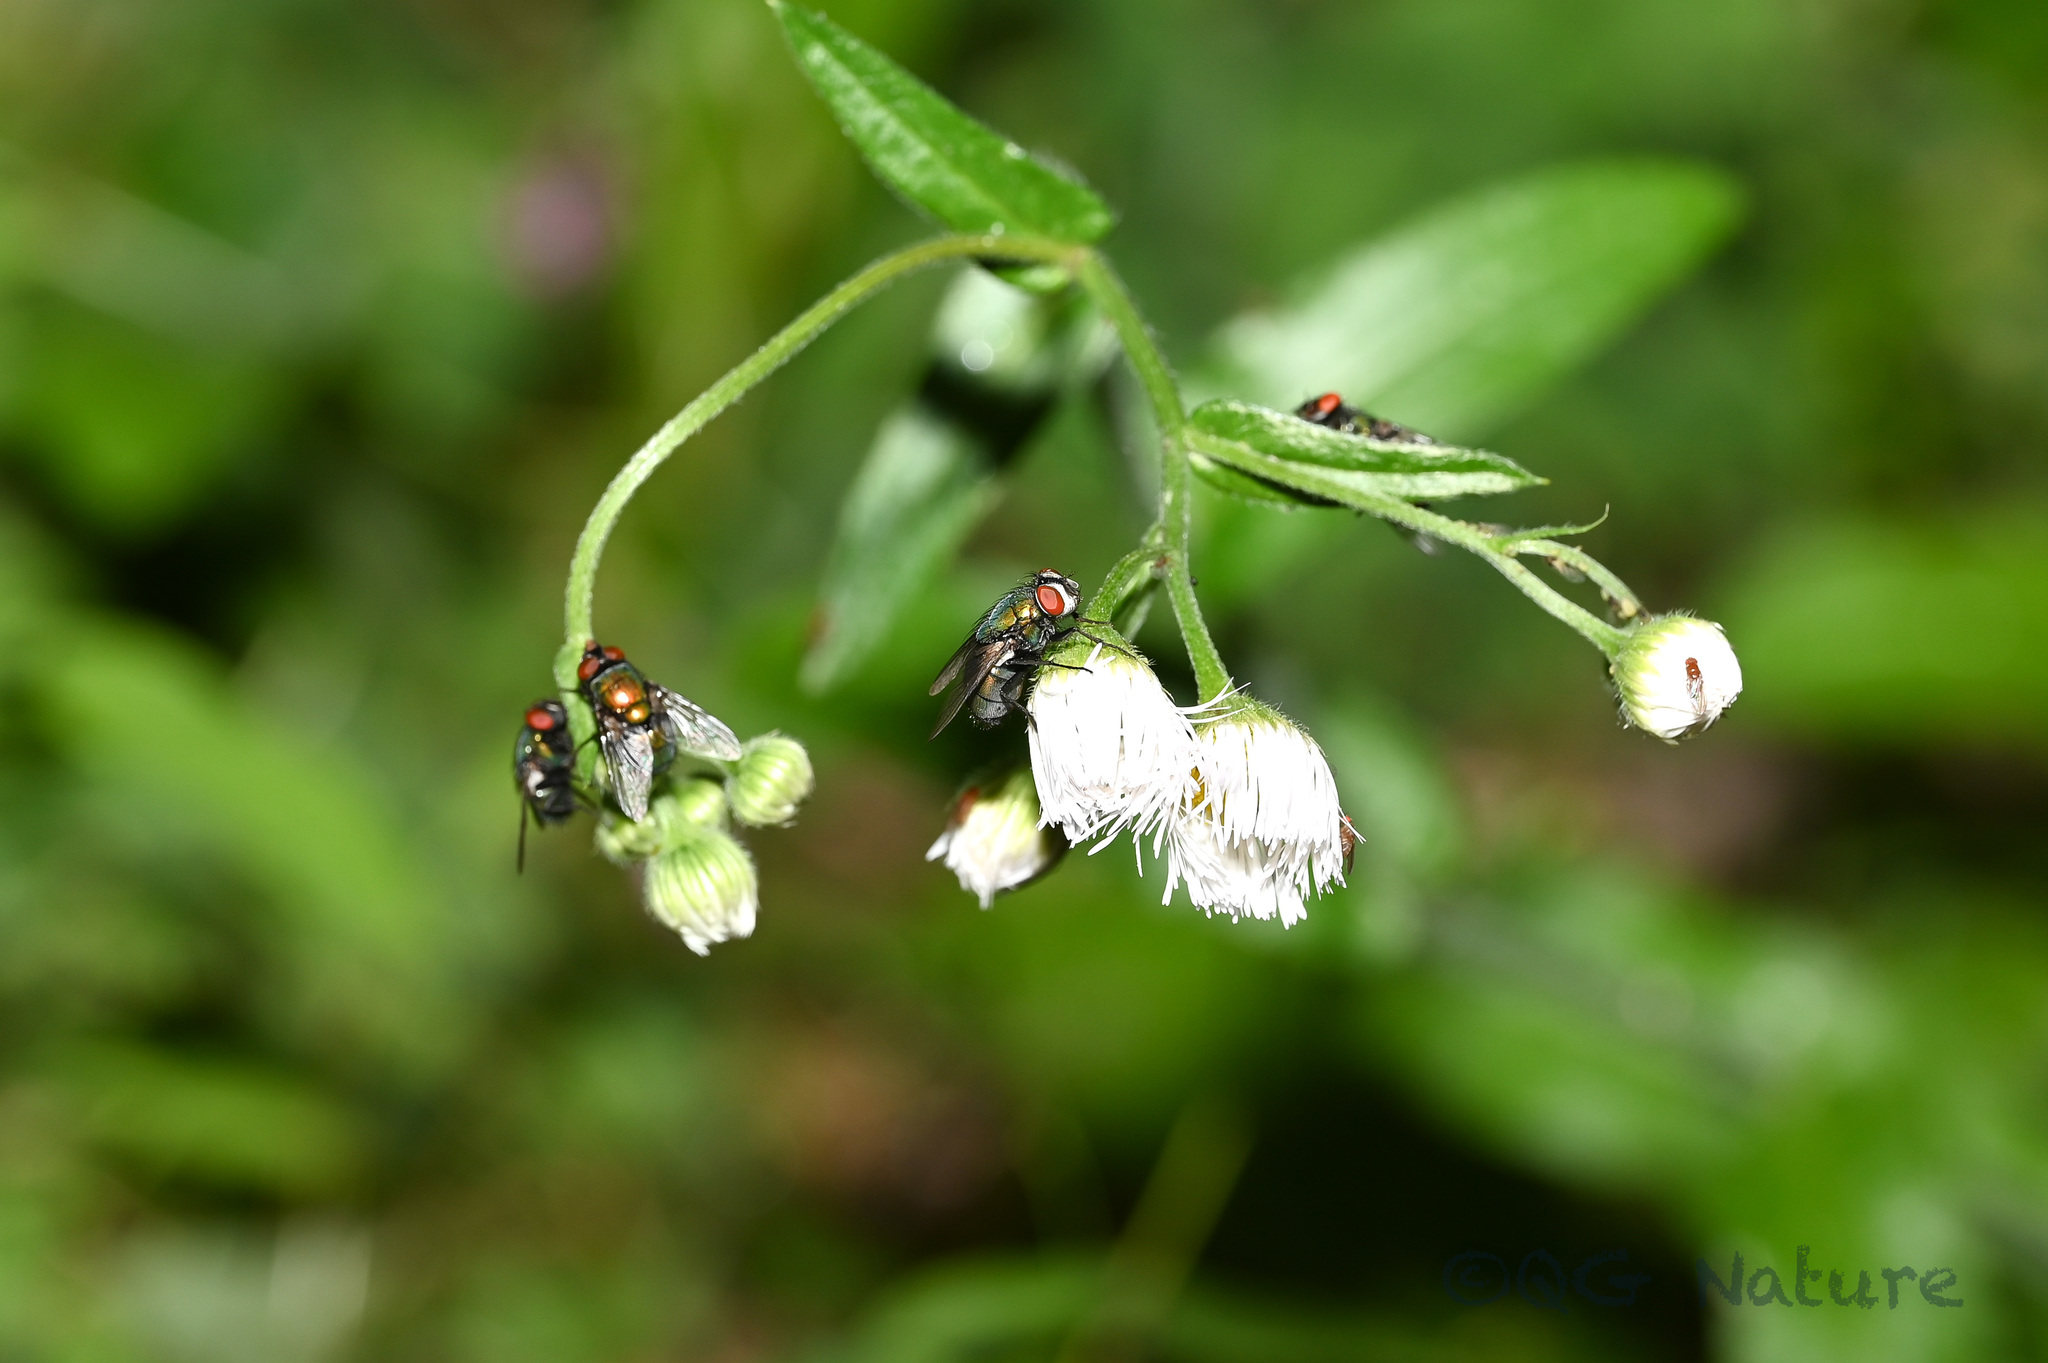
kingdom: Animalia
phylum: Arthropoda
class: Insecta
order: Diptera
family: Calliphoridae
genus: Lucilia
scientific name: Lucilia sericata
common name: Blow fly
